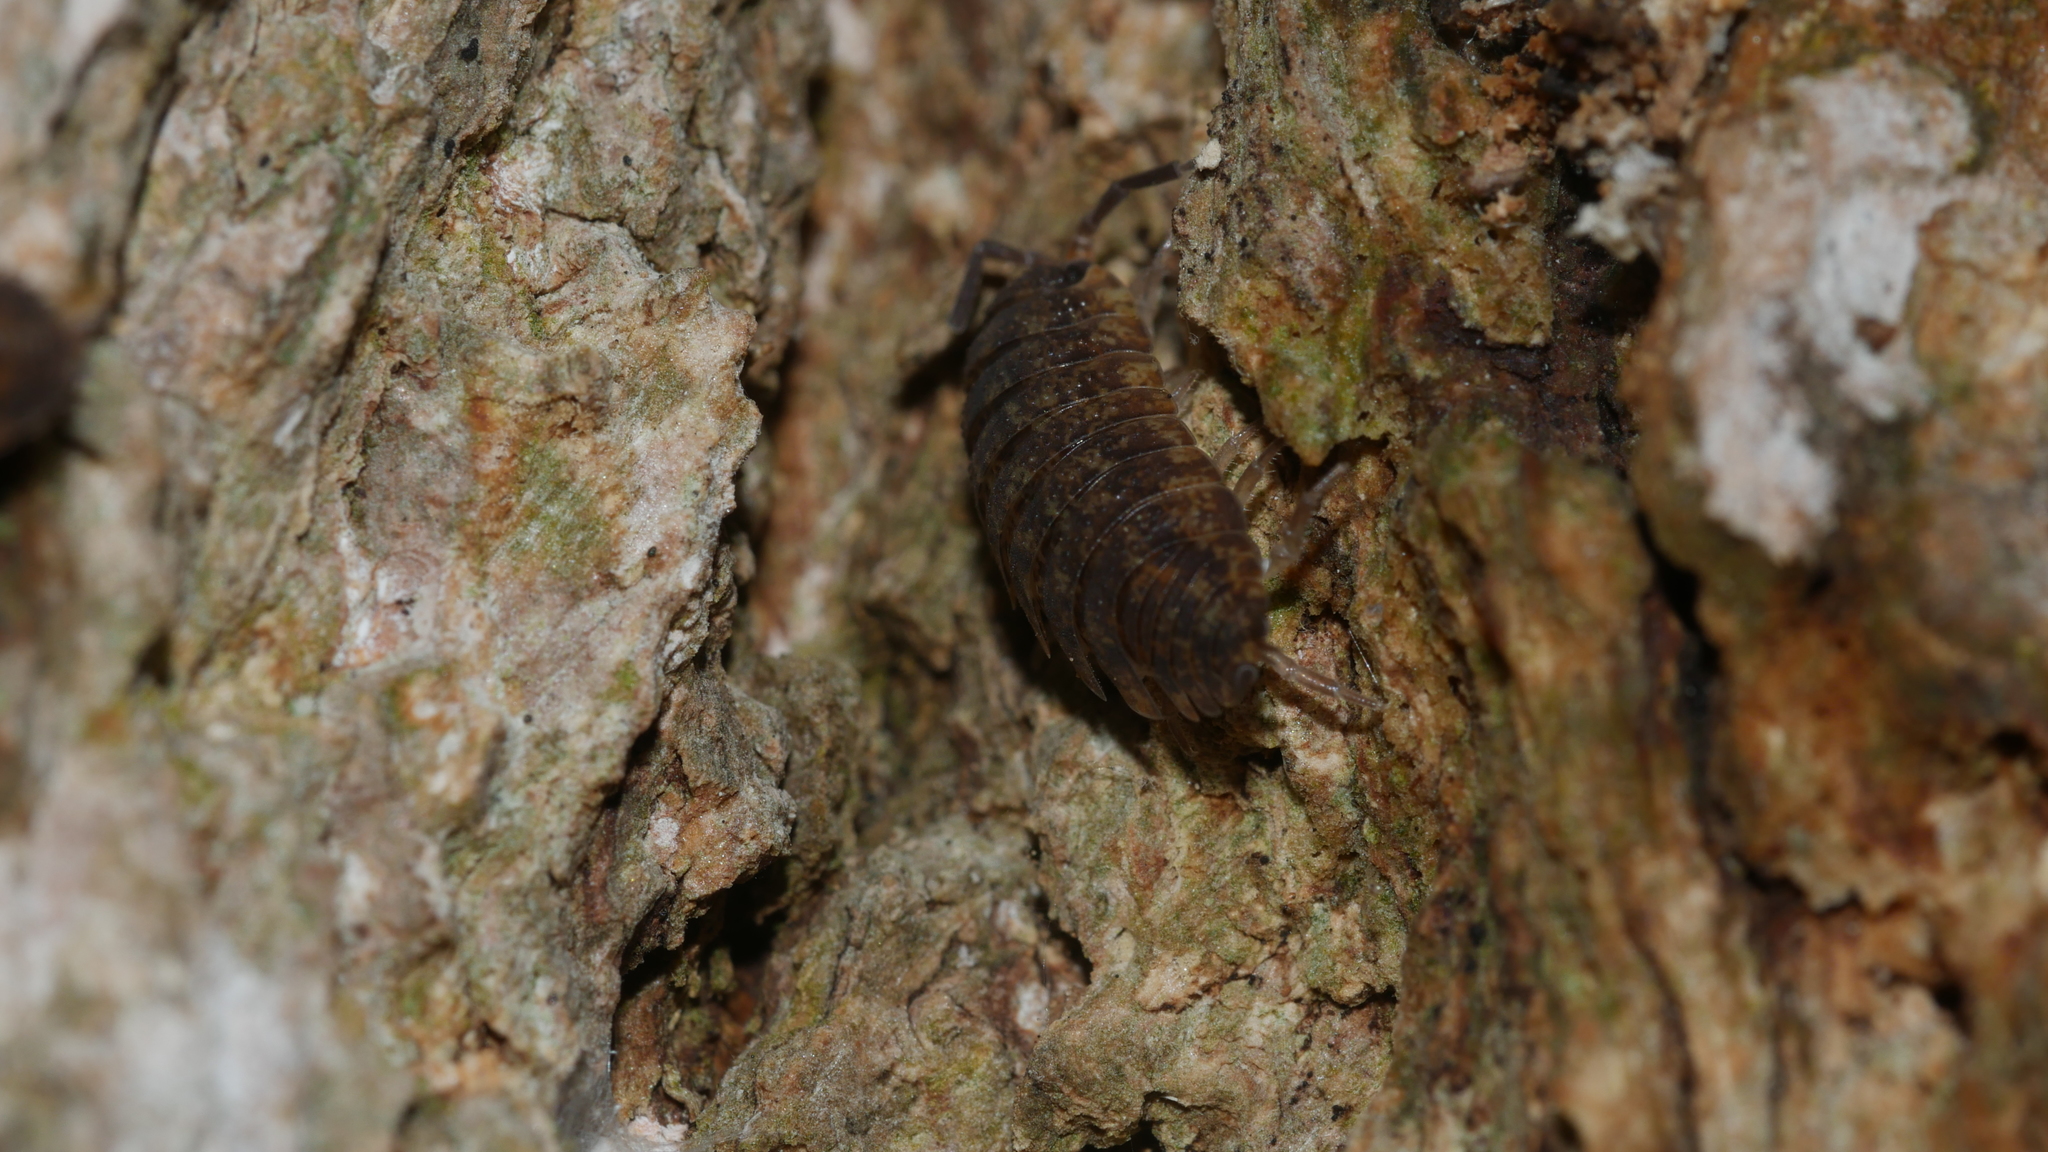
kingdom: Animalia
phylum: Arthropoda
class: Malacostraca
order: Isopoda
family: Porcellionidae
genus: Porcellio
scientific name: Porcellio scaber
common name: Common rough woodlouse
